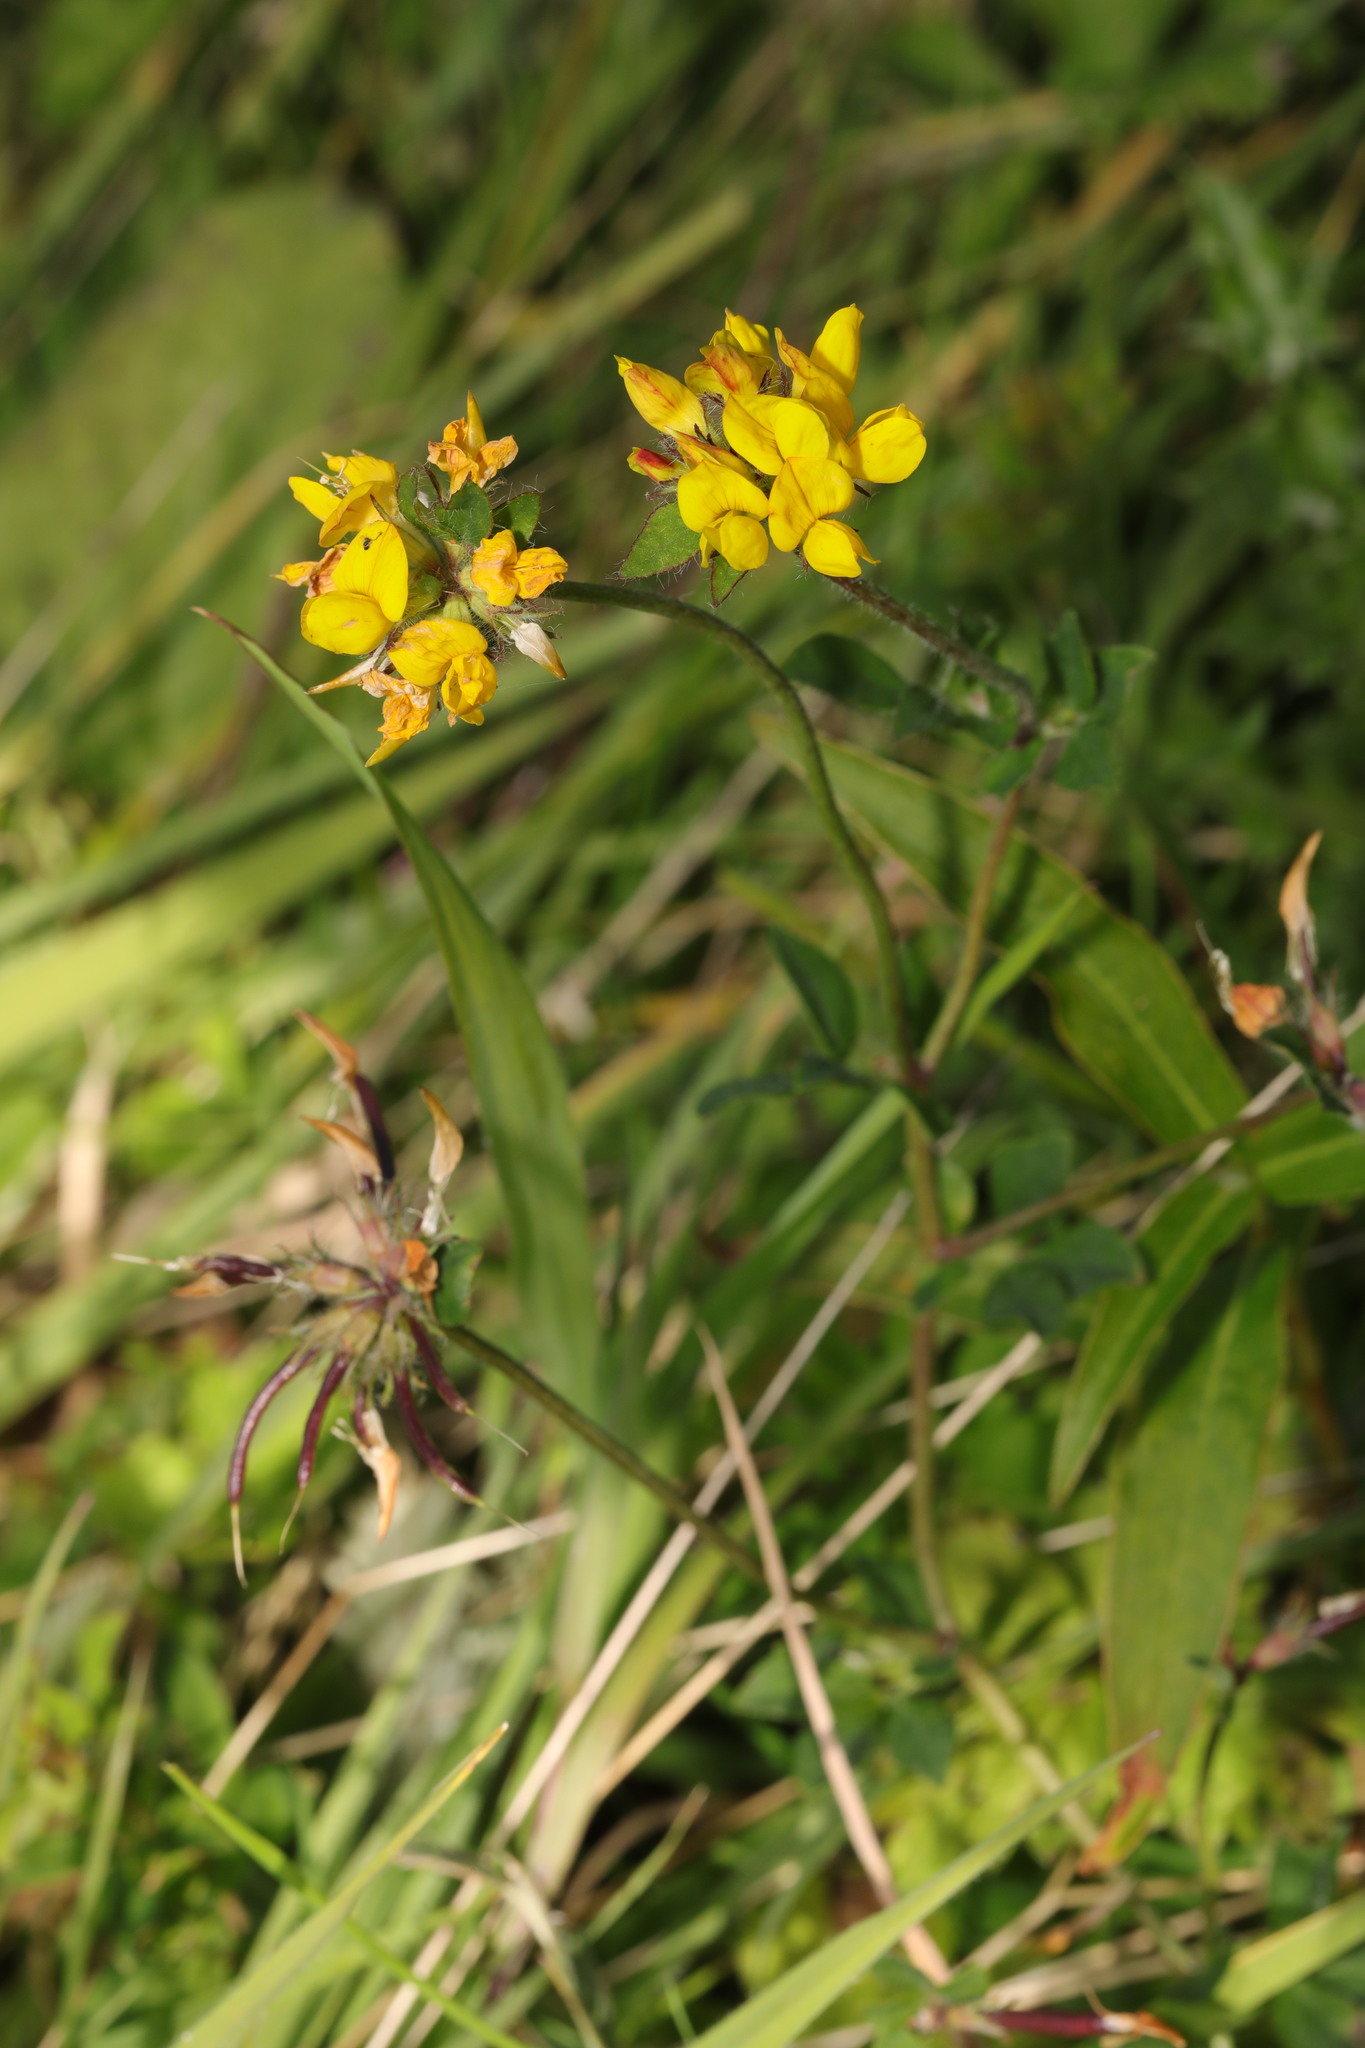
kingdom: Plantae
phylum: Tracheophyta
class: Magnoliopsida
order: Fabales
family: Fabaceae
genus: Lotus
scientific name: Lotus pedunculatus
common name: Greater birdsfoot-trefoil
